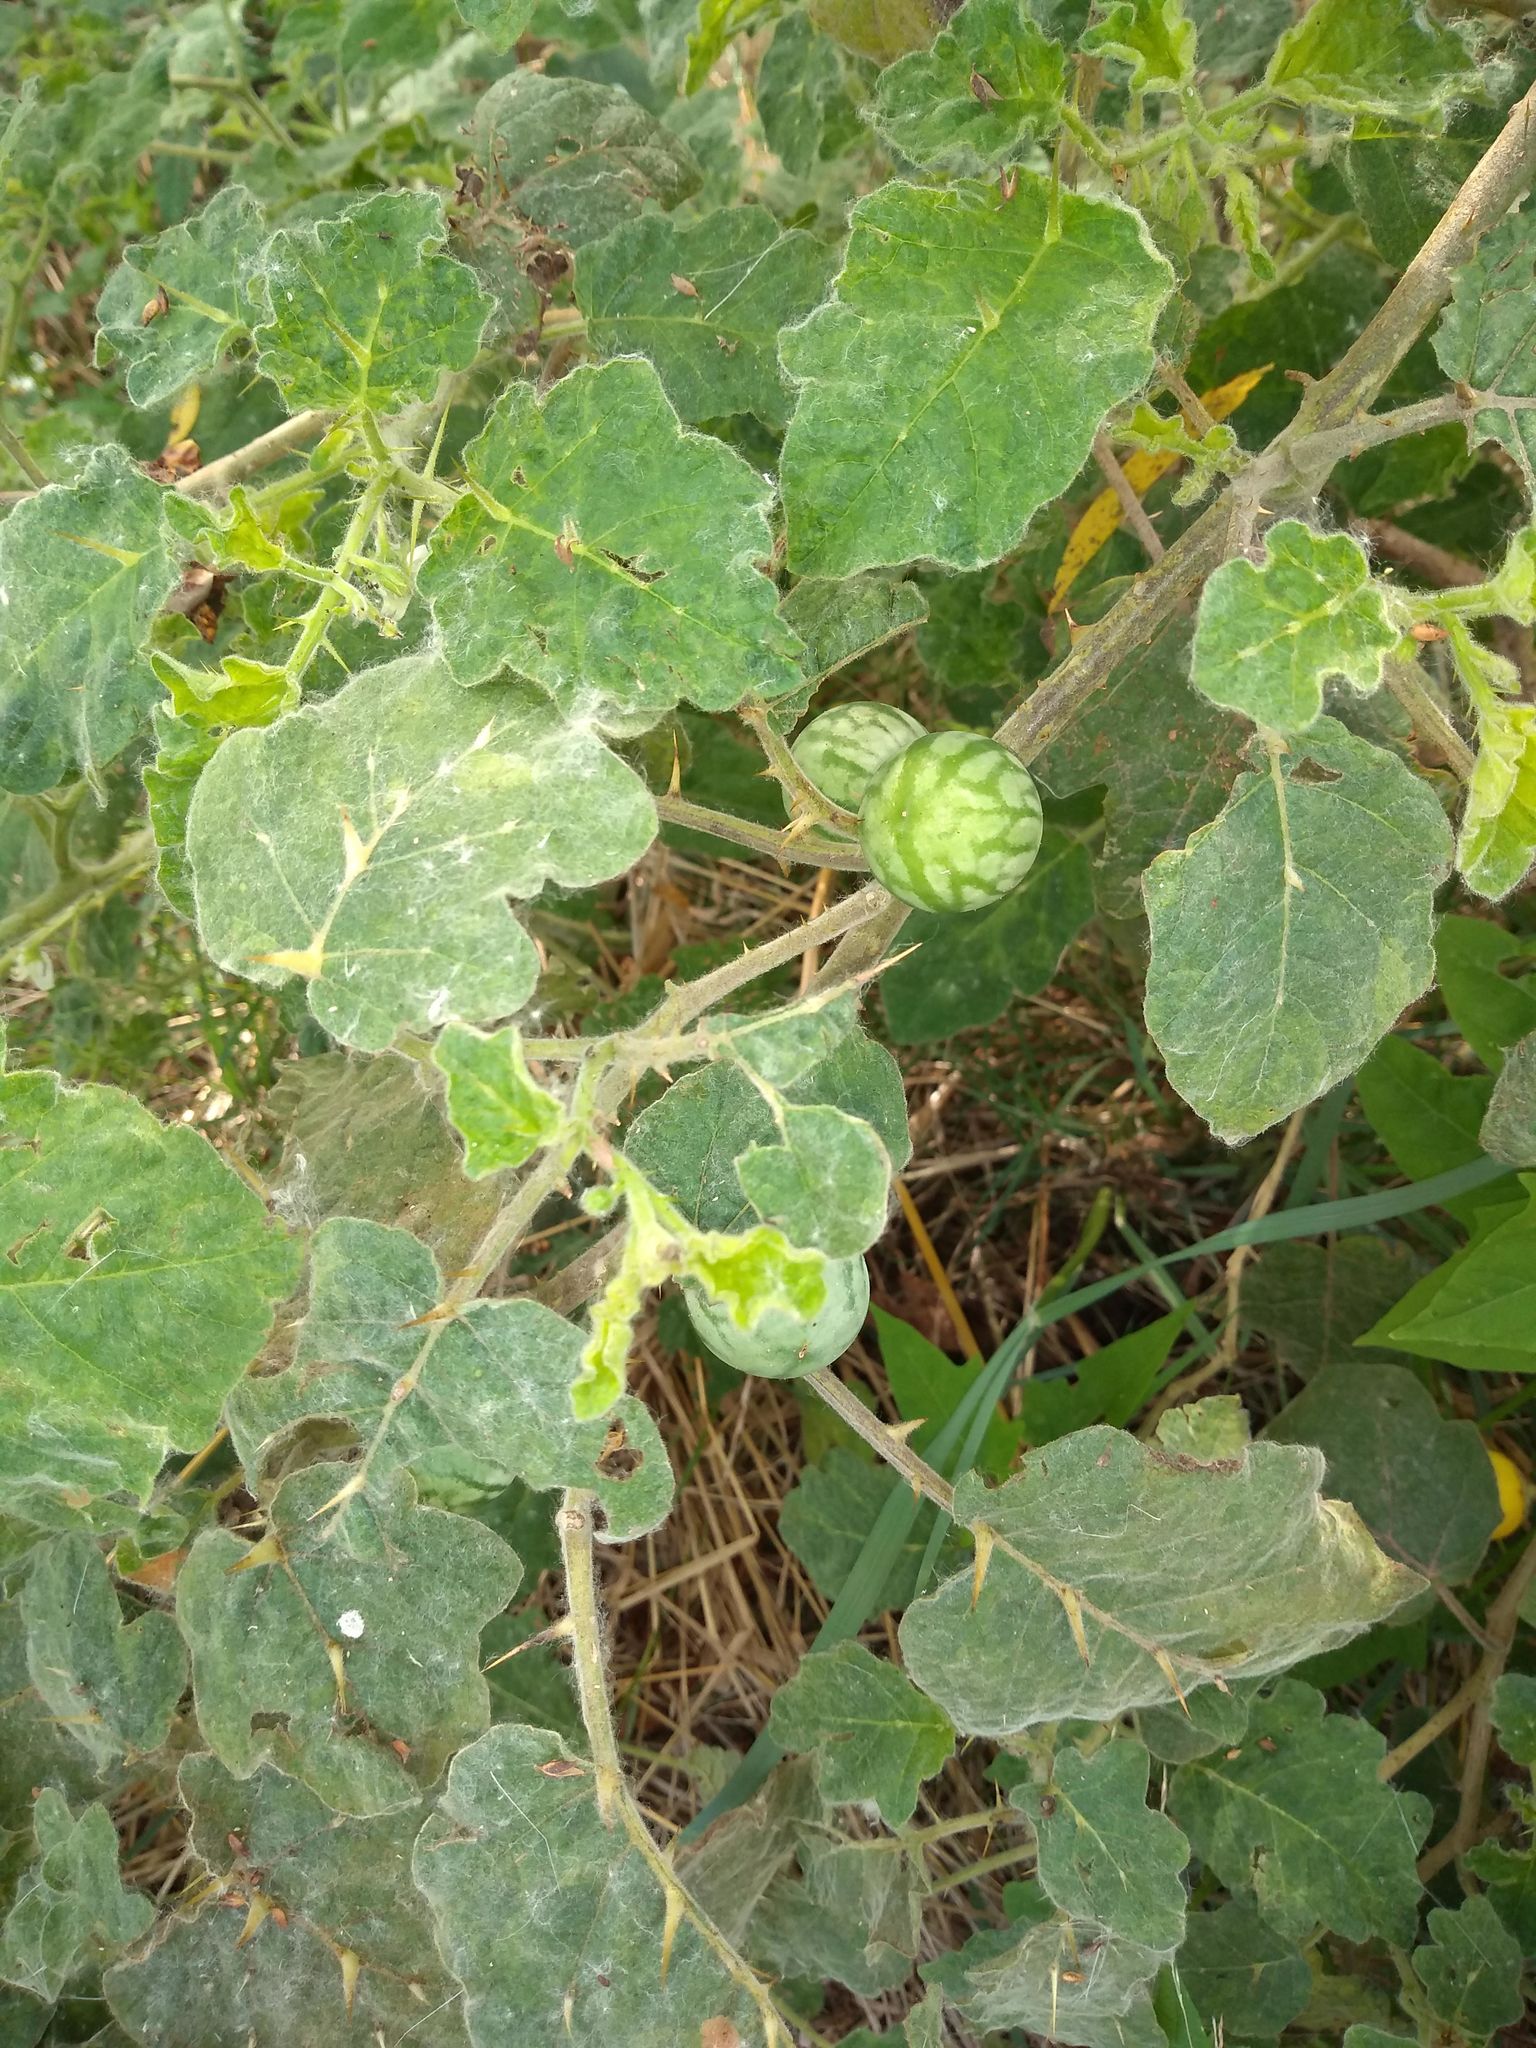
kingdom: Plantae
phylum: Tracheophyta
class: Magnoliopsida
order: Solanales
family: Solanaceae
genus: Solanum
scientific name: Solanum viarum
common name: Tropical soda apple
